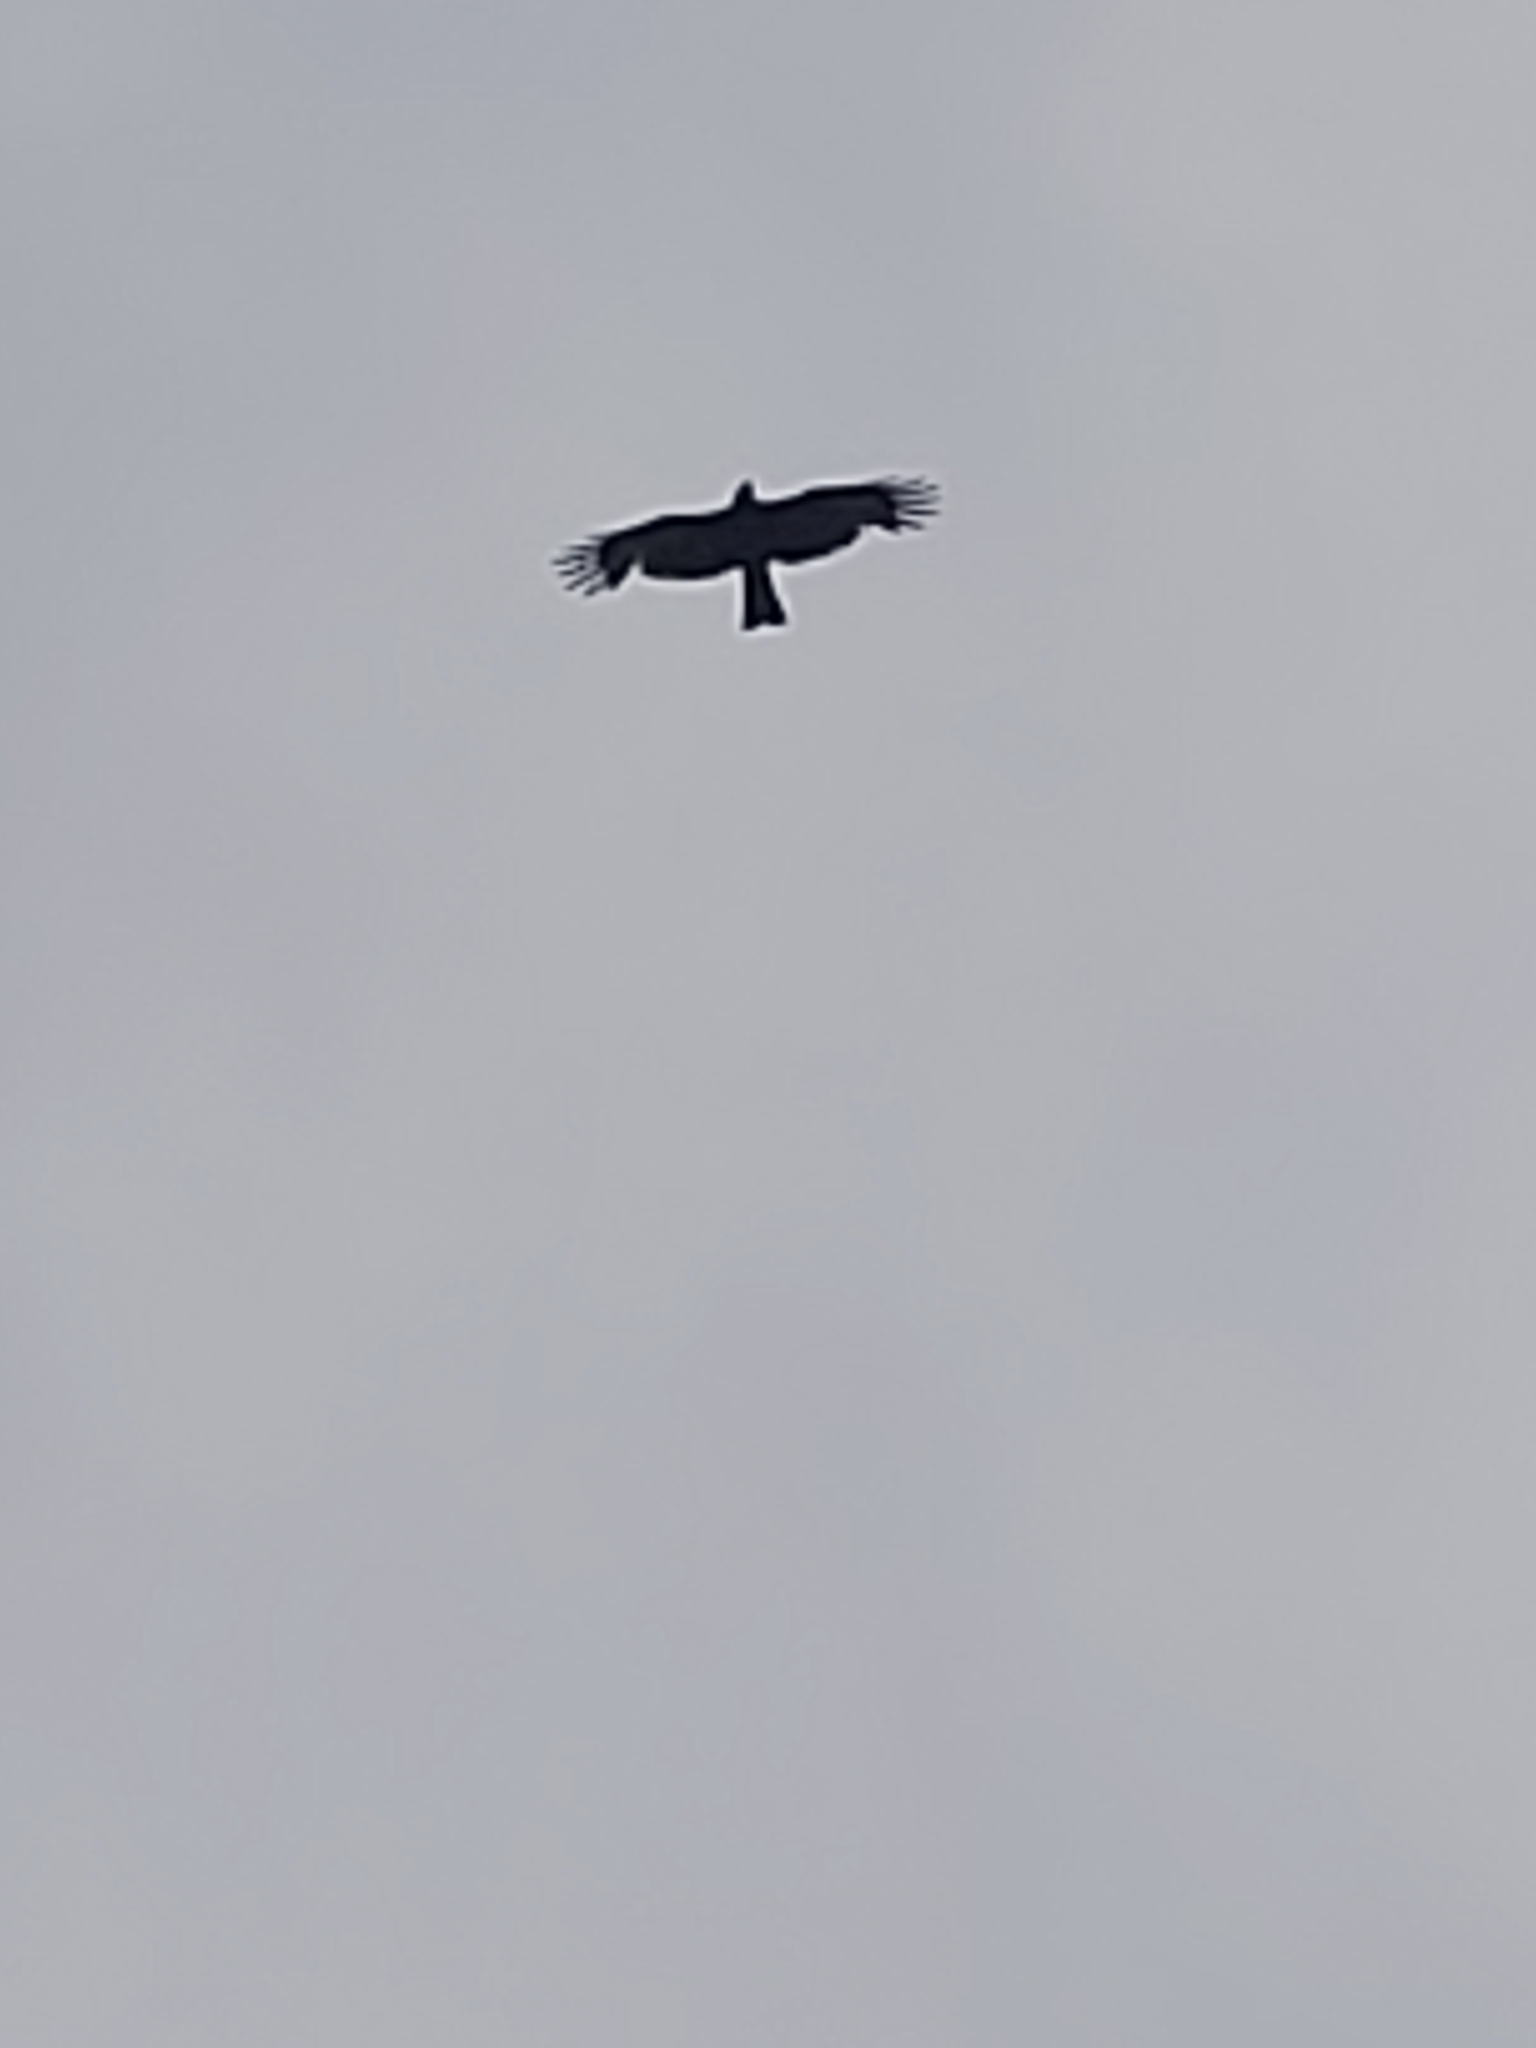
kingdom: Animalia
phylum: Chordata
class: Aves
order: Accipitriformes
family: Accipitridae
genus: Milvus
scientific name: Milvus migrans
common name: Black kite
